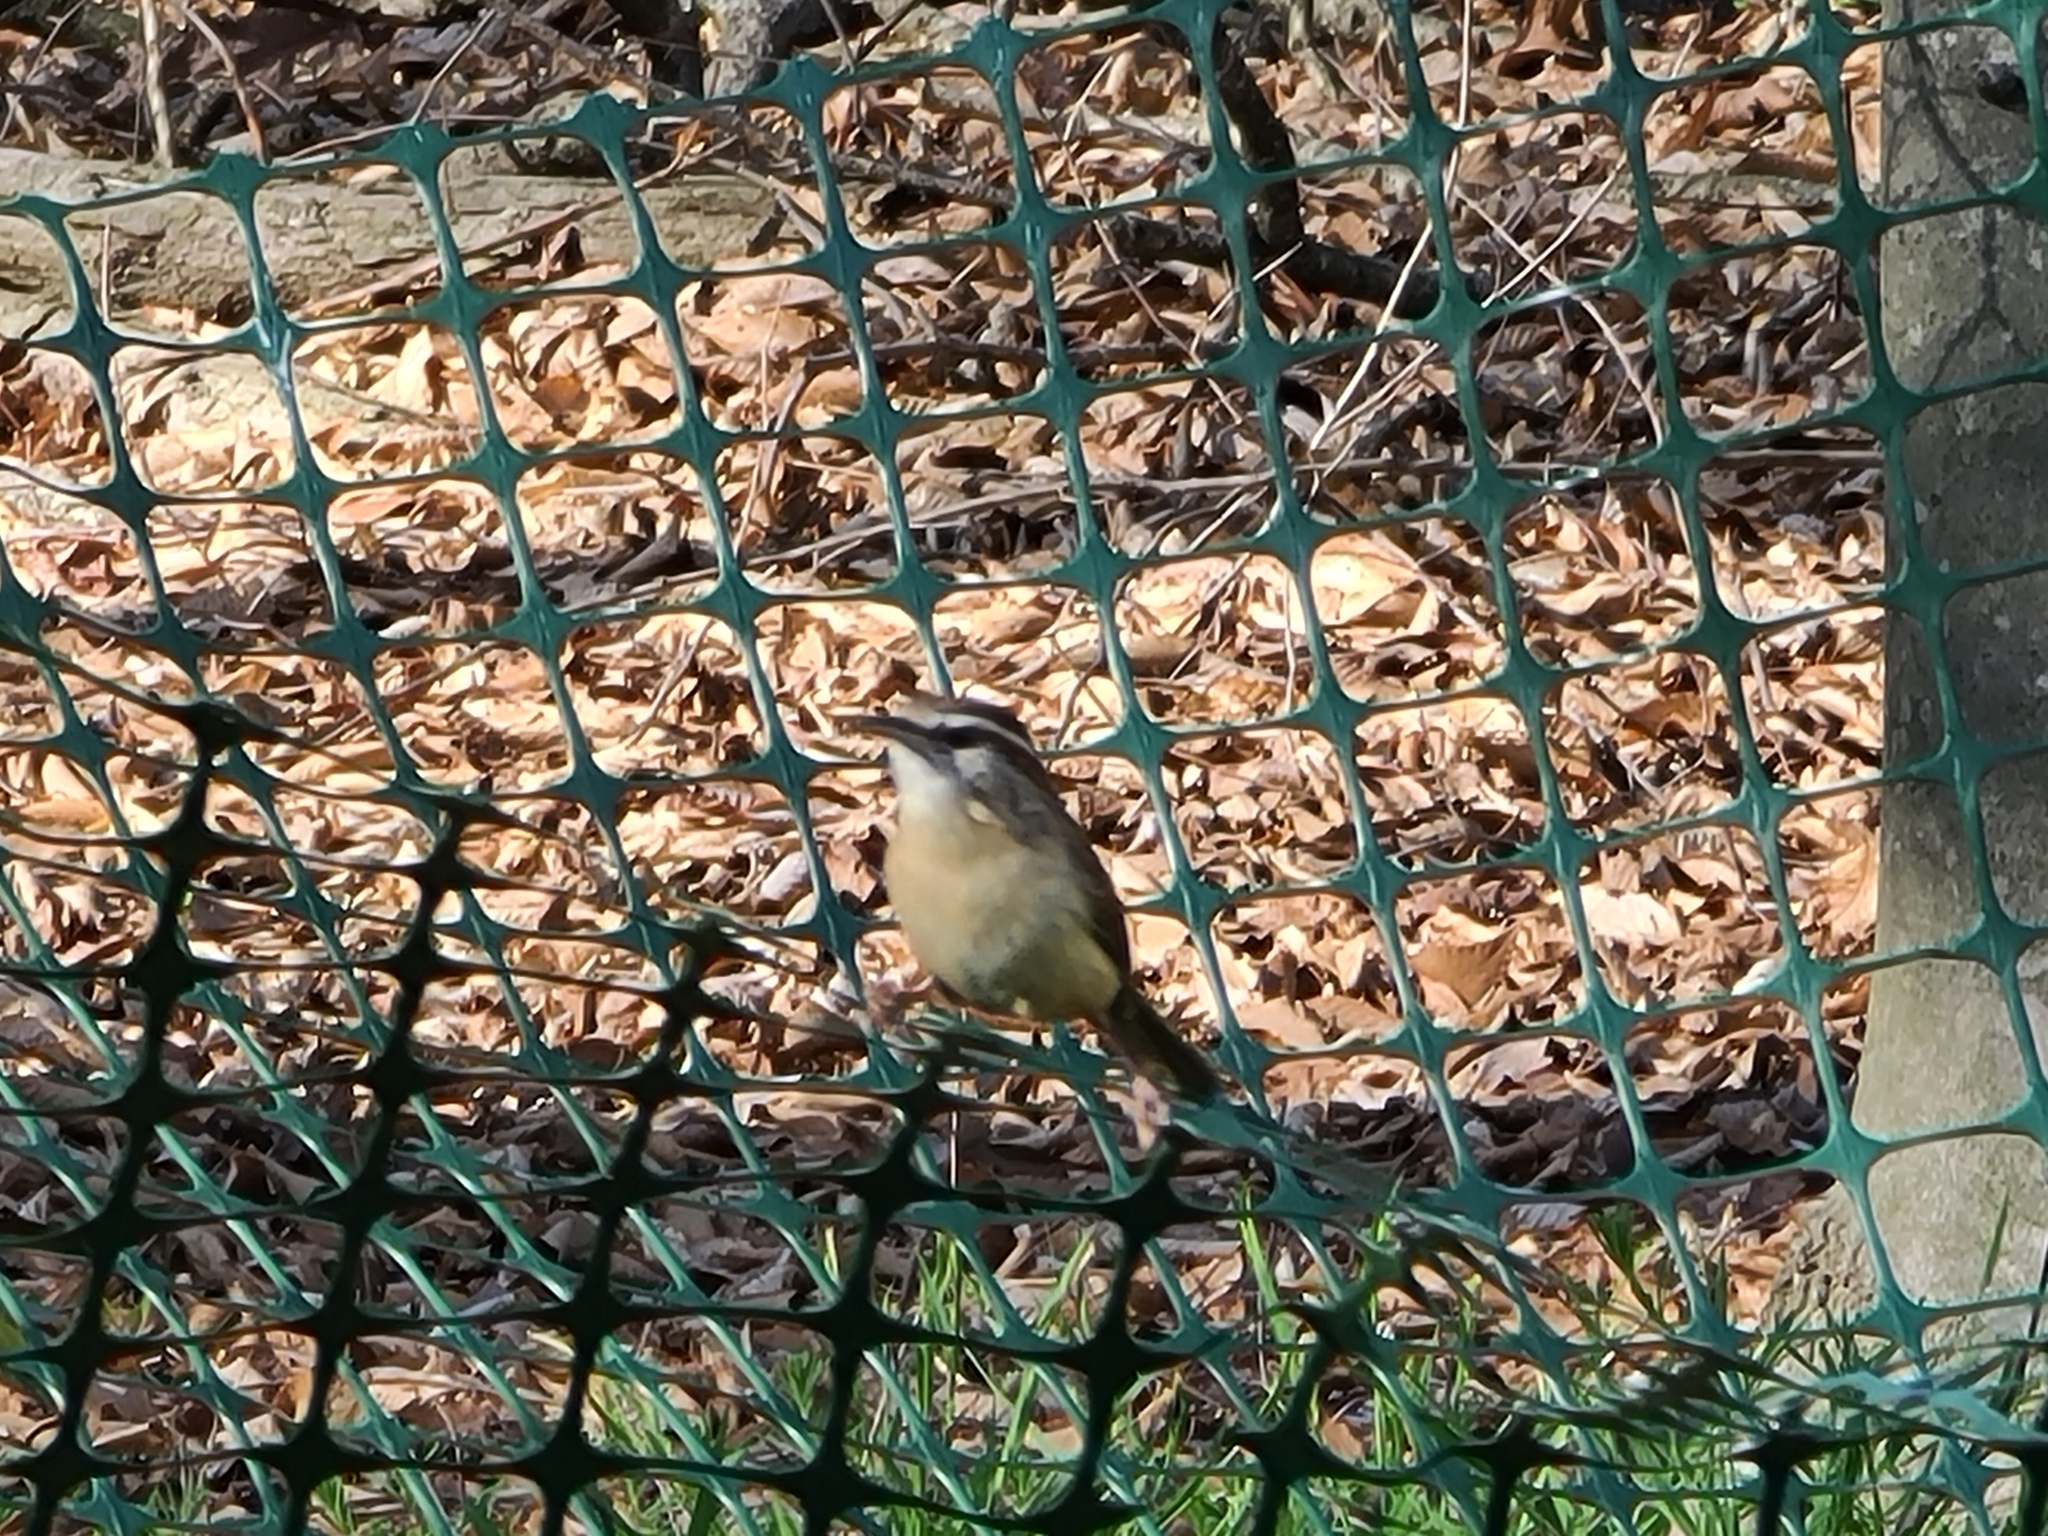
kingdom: Animalia
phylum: Chordata
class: Aves
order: Passeriformes
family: Troglodytidae
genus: Thryothorus
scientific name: Thryothorus ludovicianus
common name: Carolina wren
